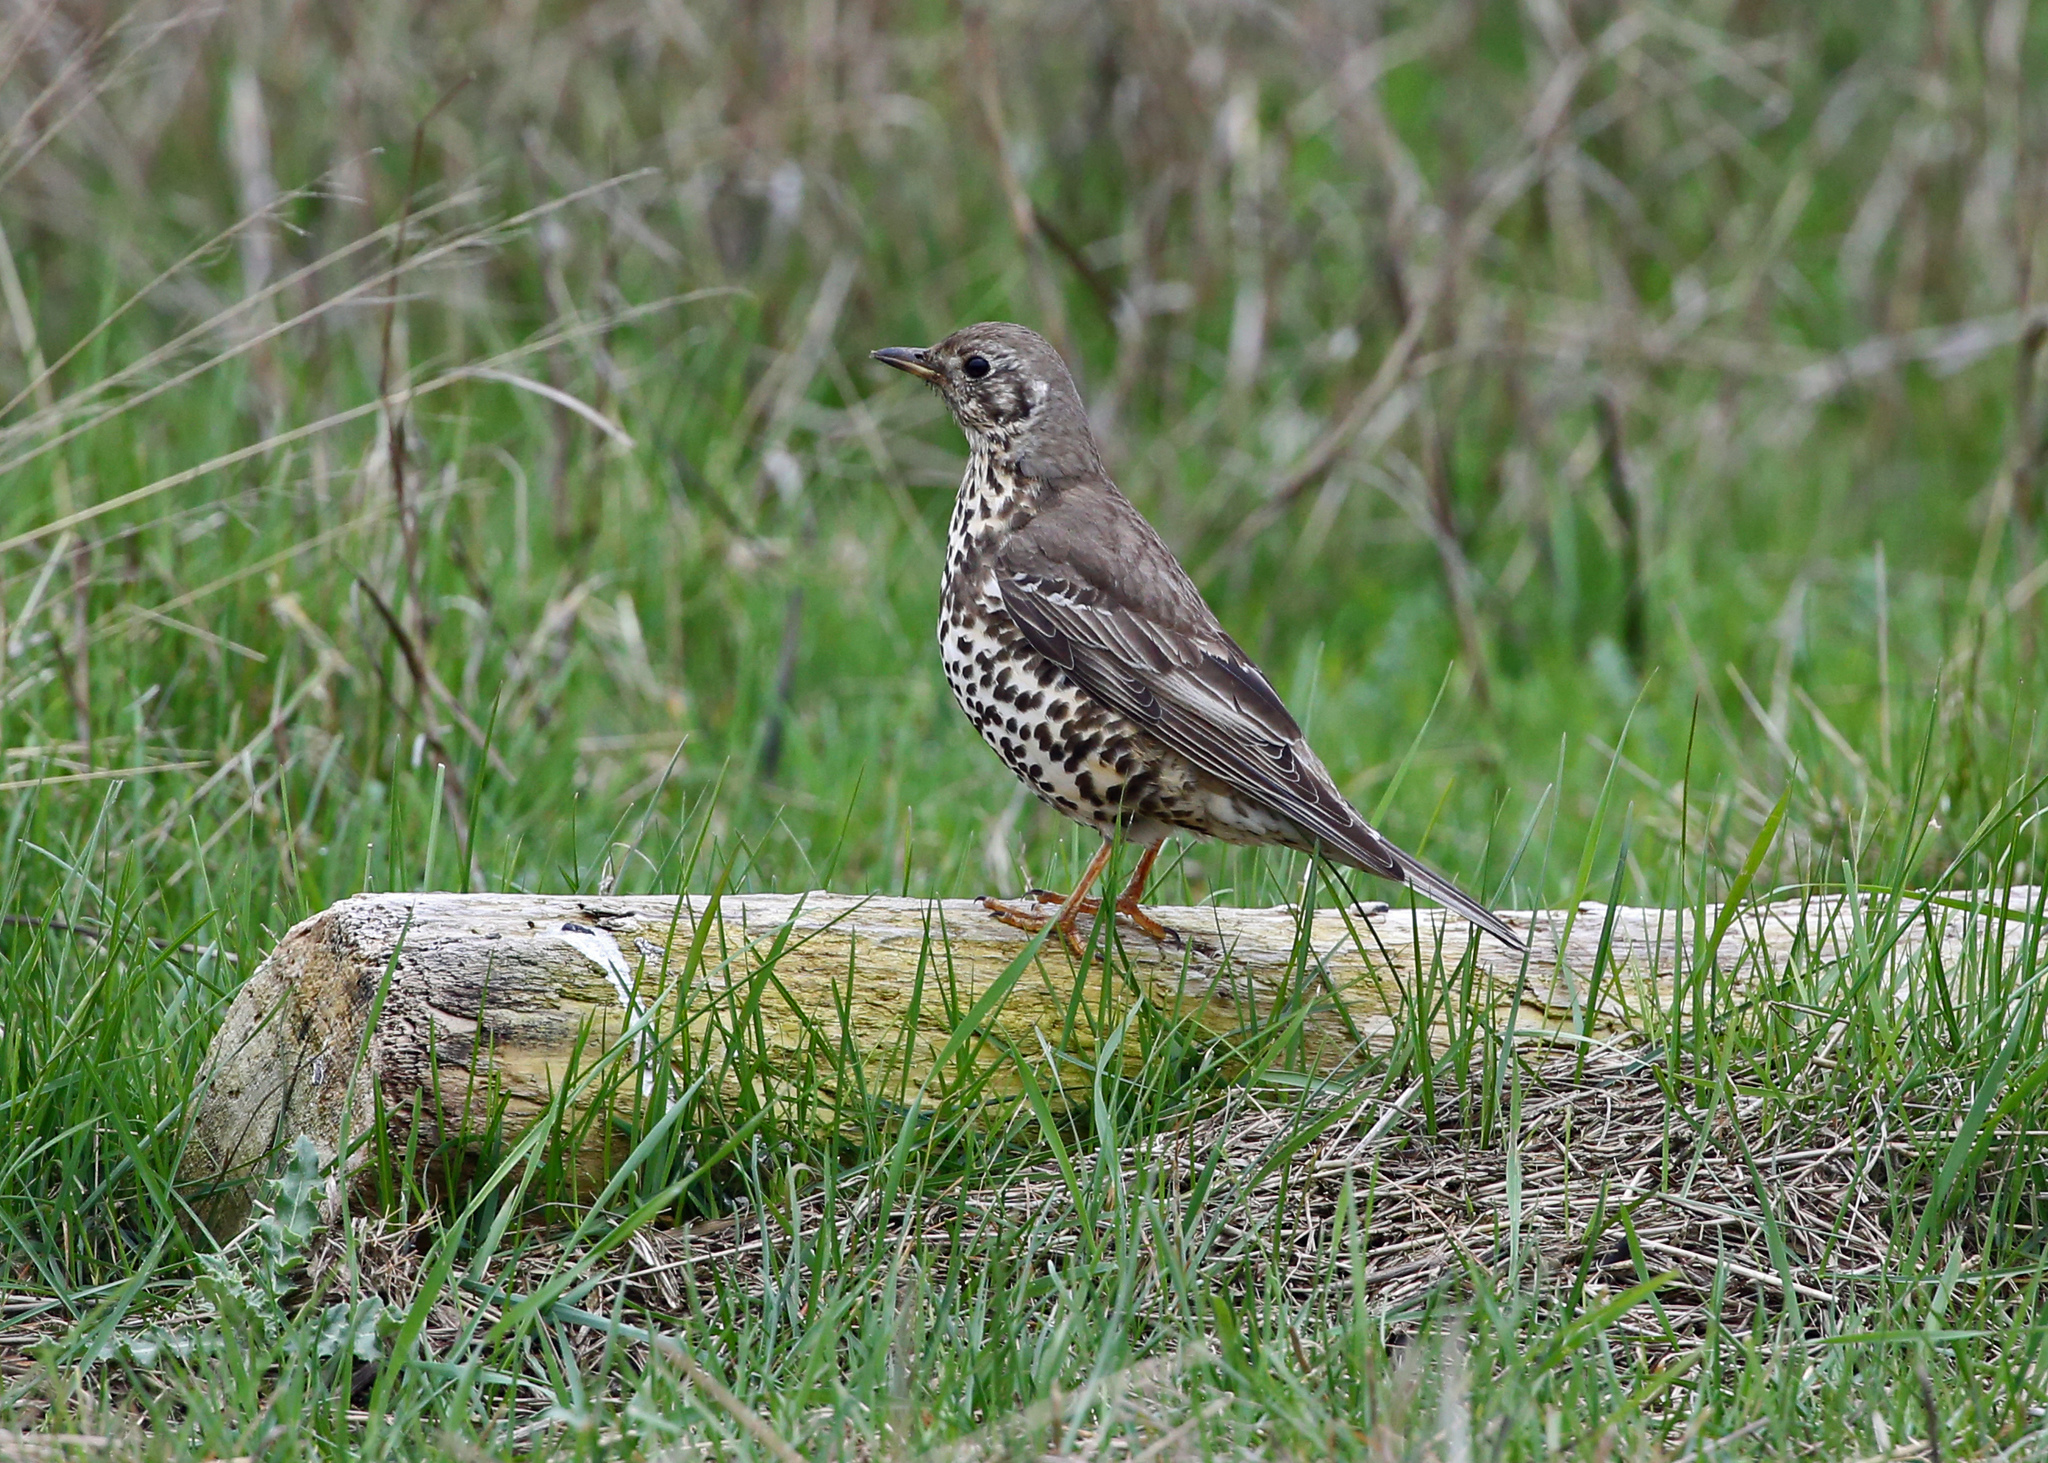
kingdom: Animalia
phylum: Chordata
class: Aves
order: Passeriformes
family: Turdidae
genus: Turdus
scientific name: Turdus viscivorus
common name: Mistle thrush
